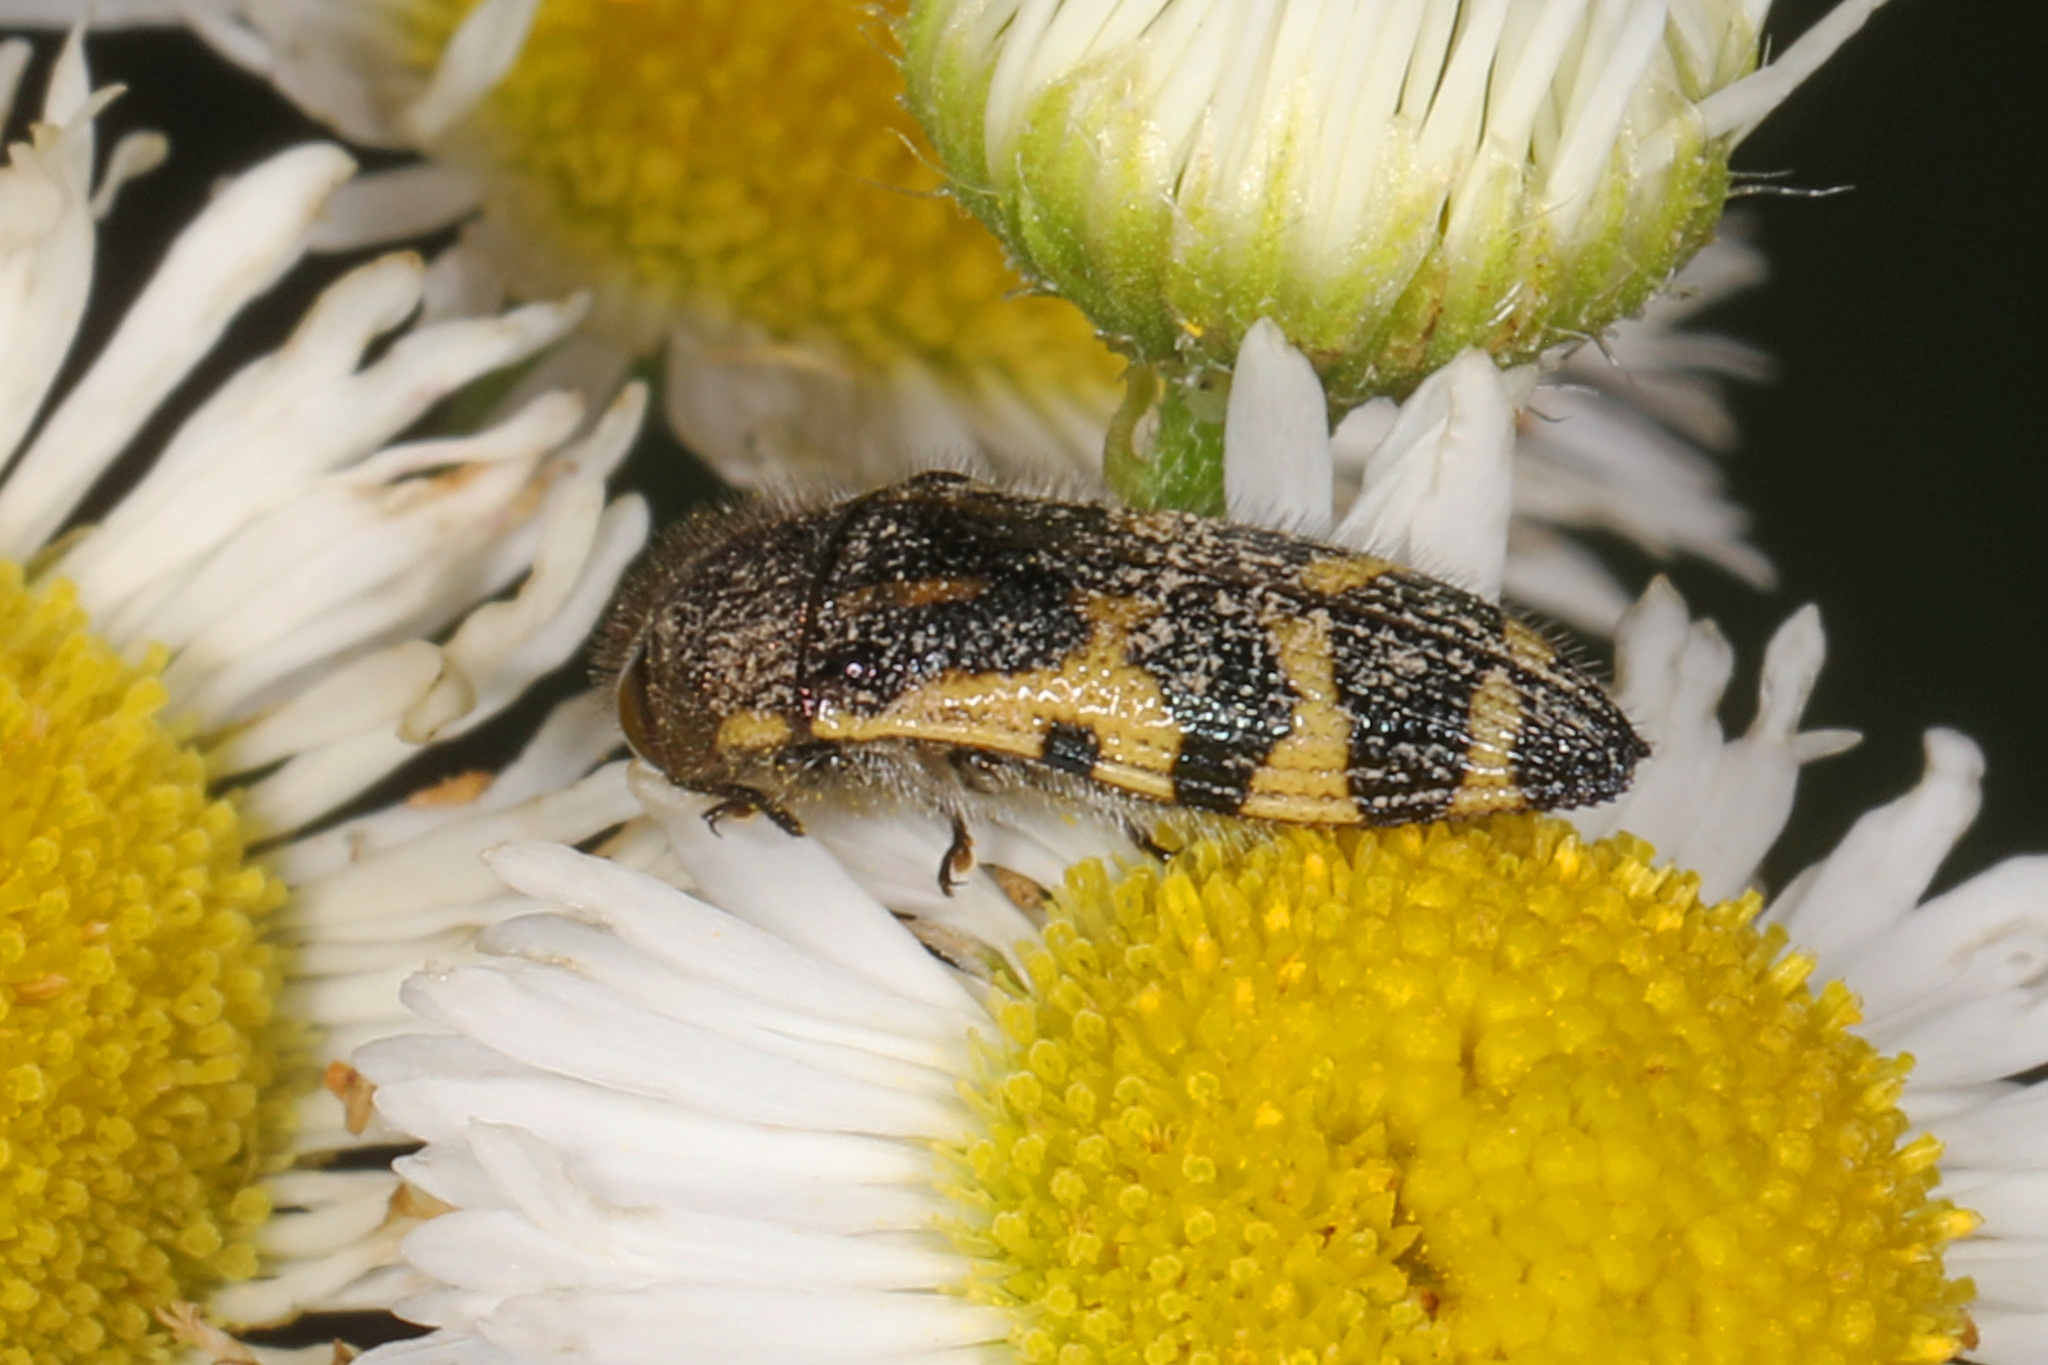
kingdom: Animalia
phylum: Arthropoda
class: Insecta
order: Coleoptera
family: Buprestidae
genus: Acmaeodera
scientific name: Acmaeodera pulchella
